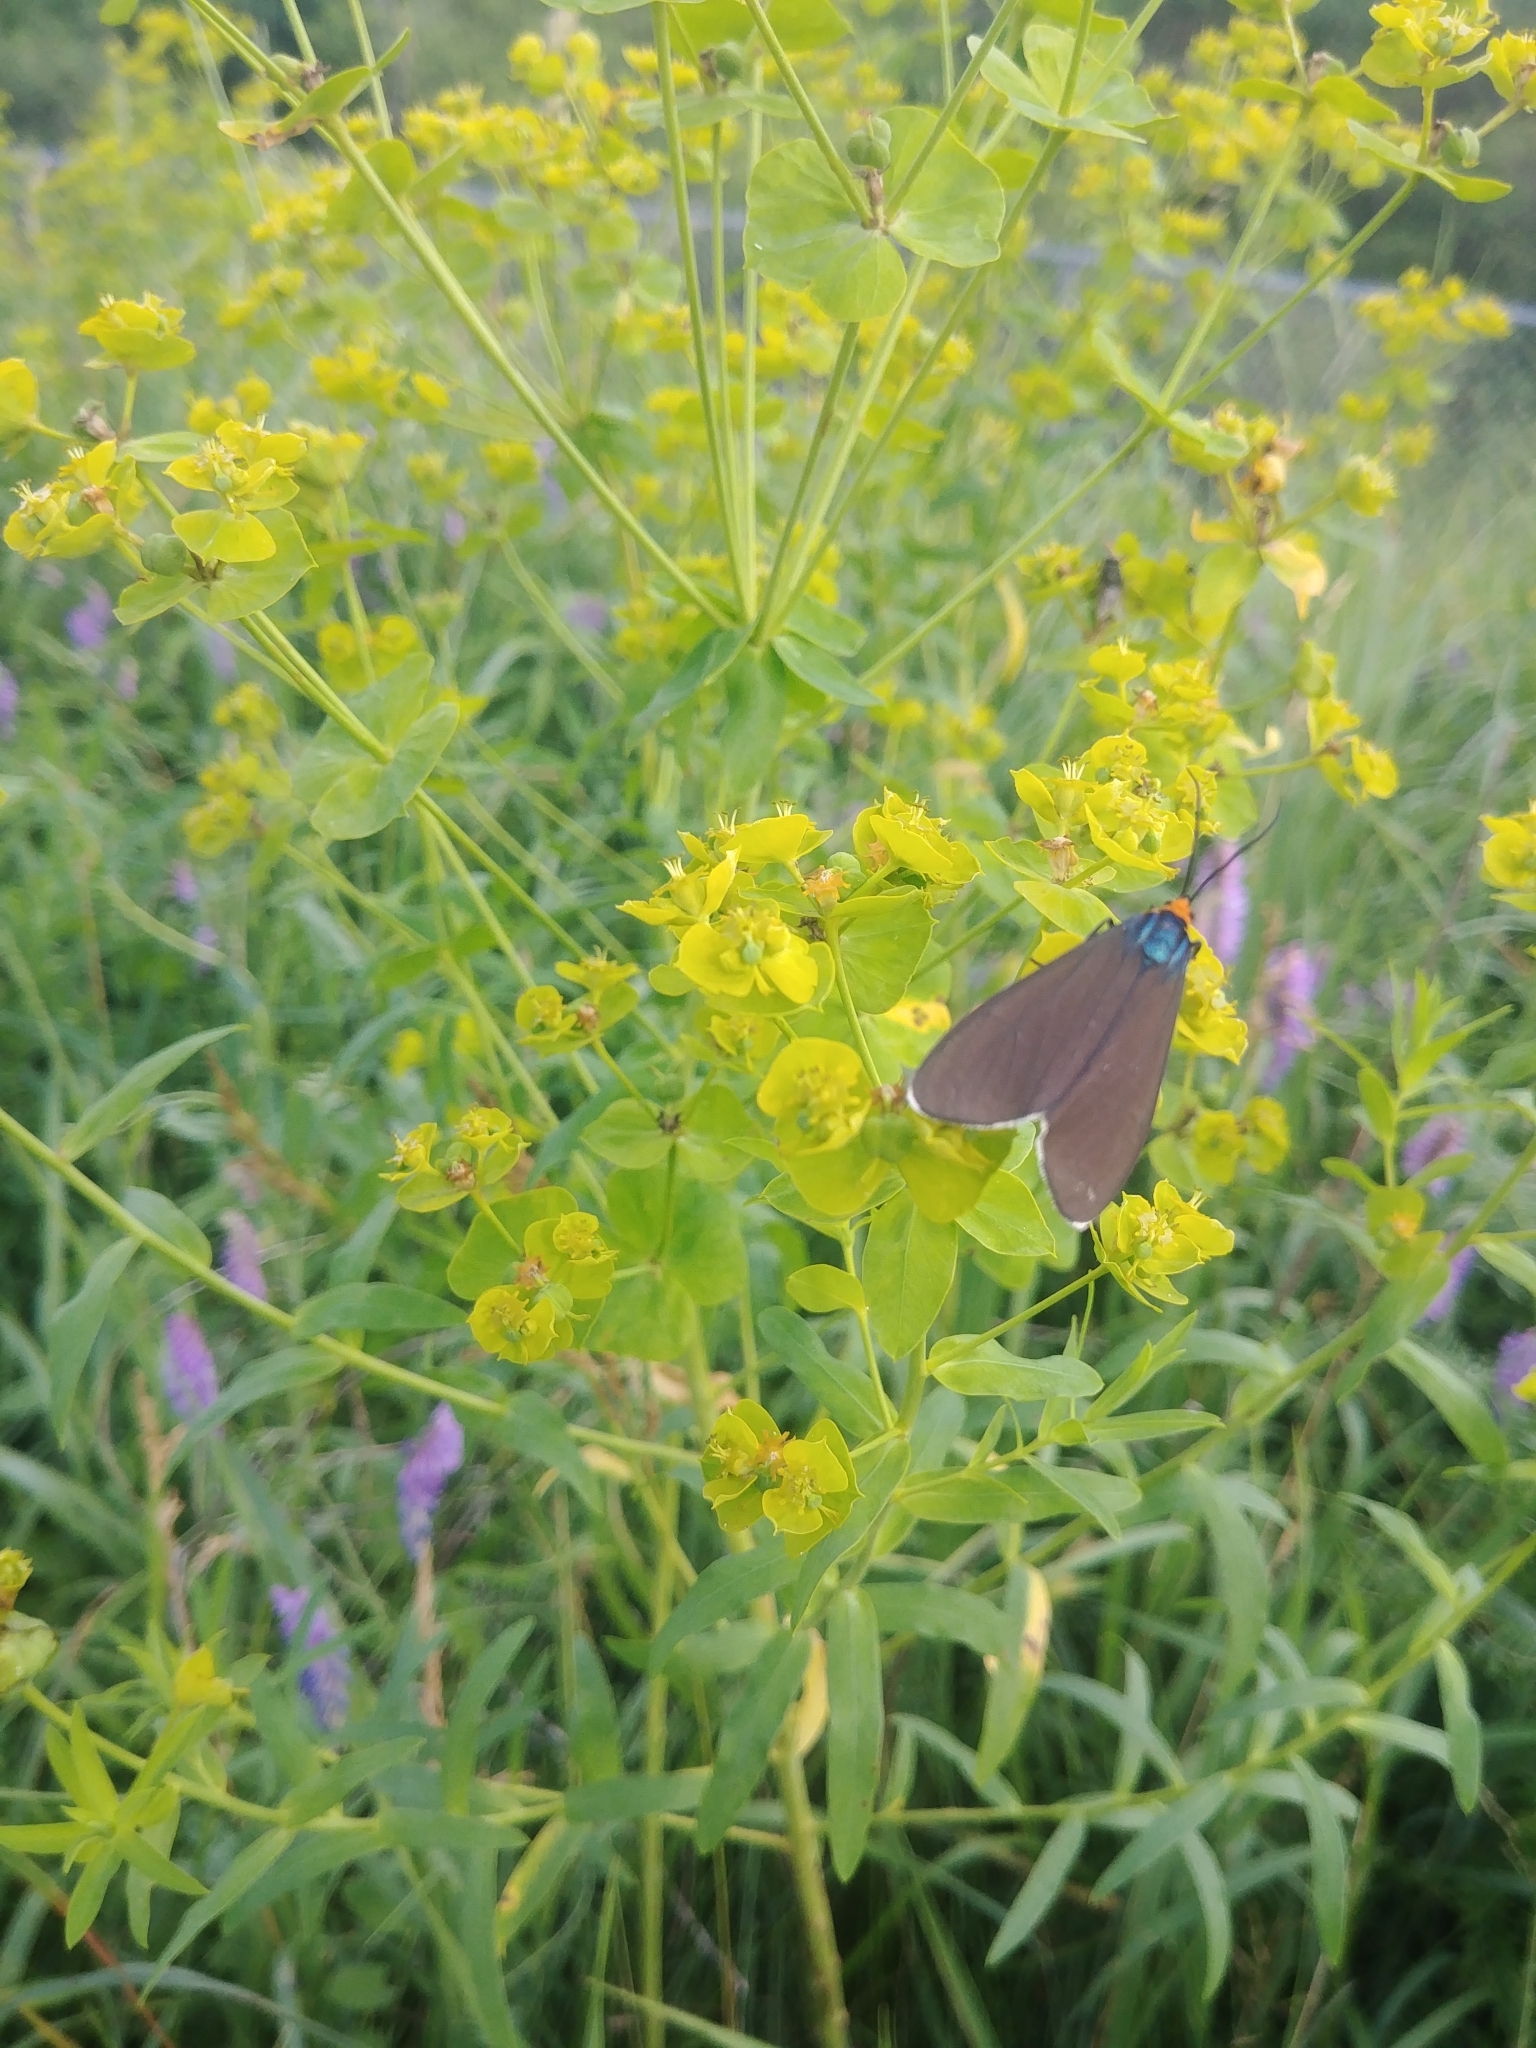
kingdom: Animalia
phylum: Arthropoda
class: Insecta
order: Lepidoptera
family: Erebidae
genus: Ctenucha
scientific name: Ctenucha virginica
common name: Virginia ctenucha moth
